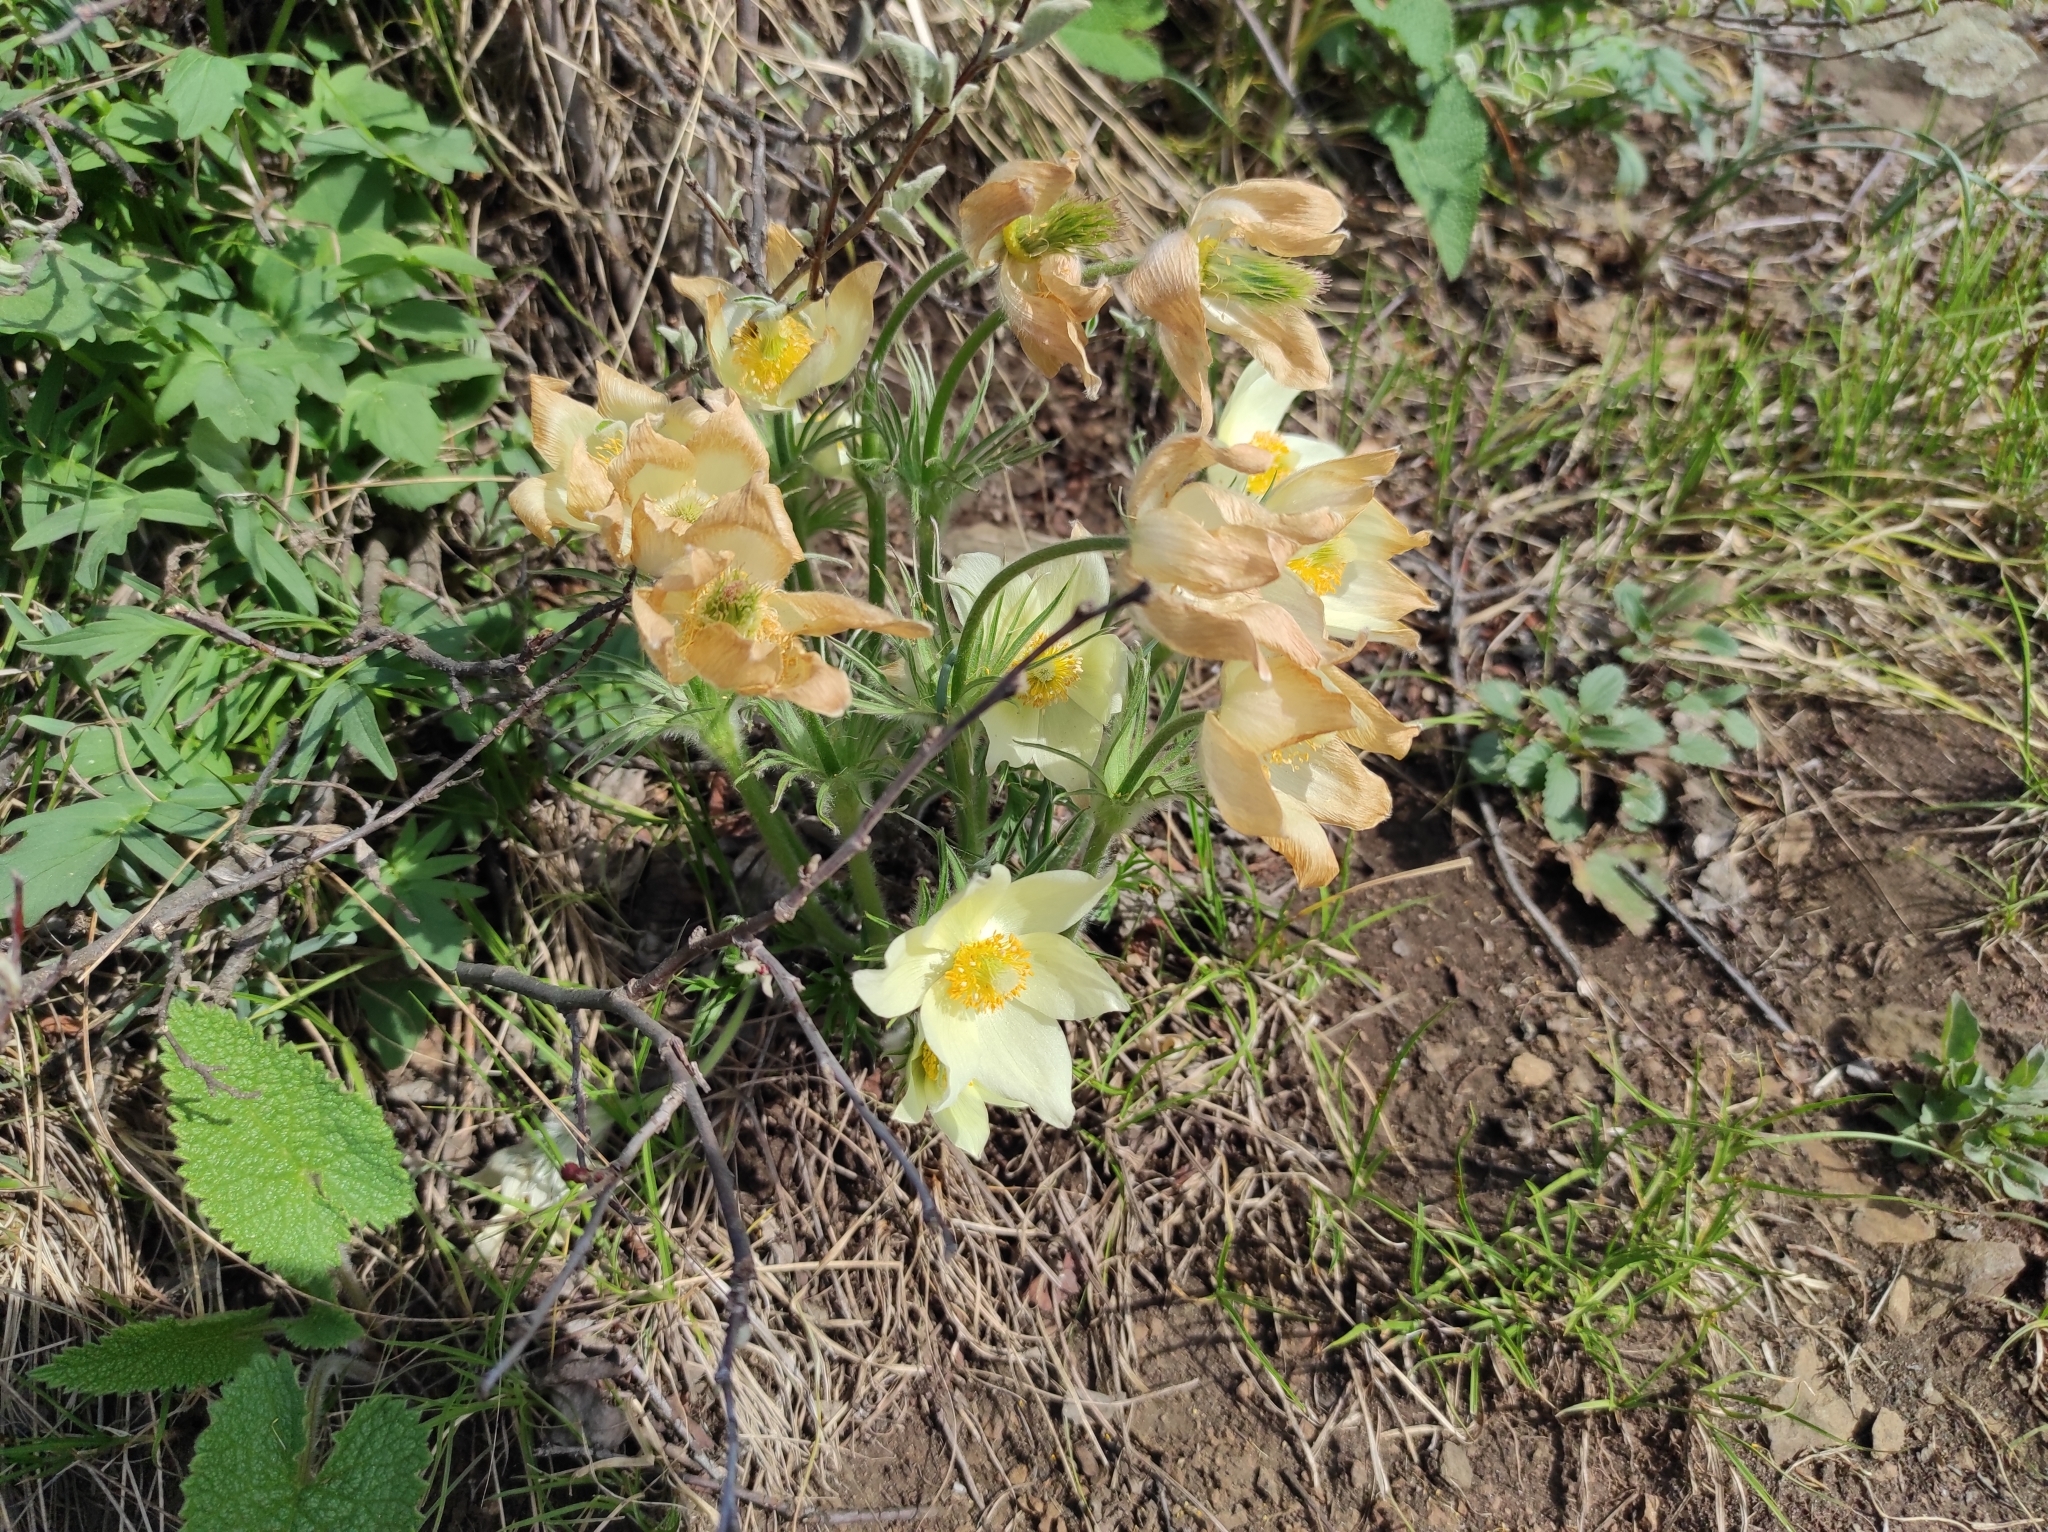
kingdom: Plantae
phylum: Tracheophyta
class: Magnoliopsida
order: Ranunculales
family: Ranunculaceae
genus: Pulsatilla
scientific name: Pulsatilla patens
